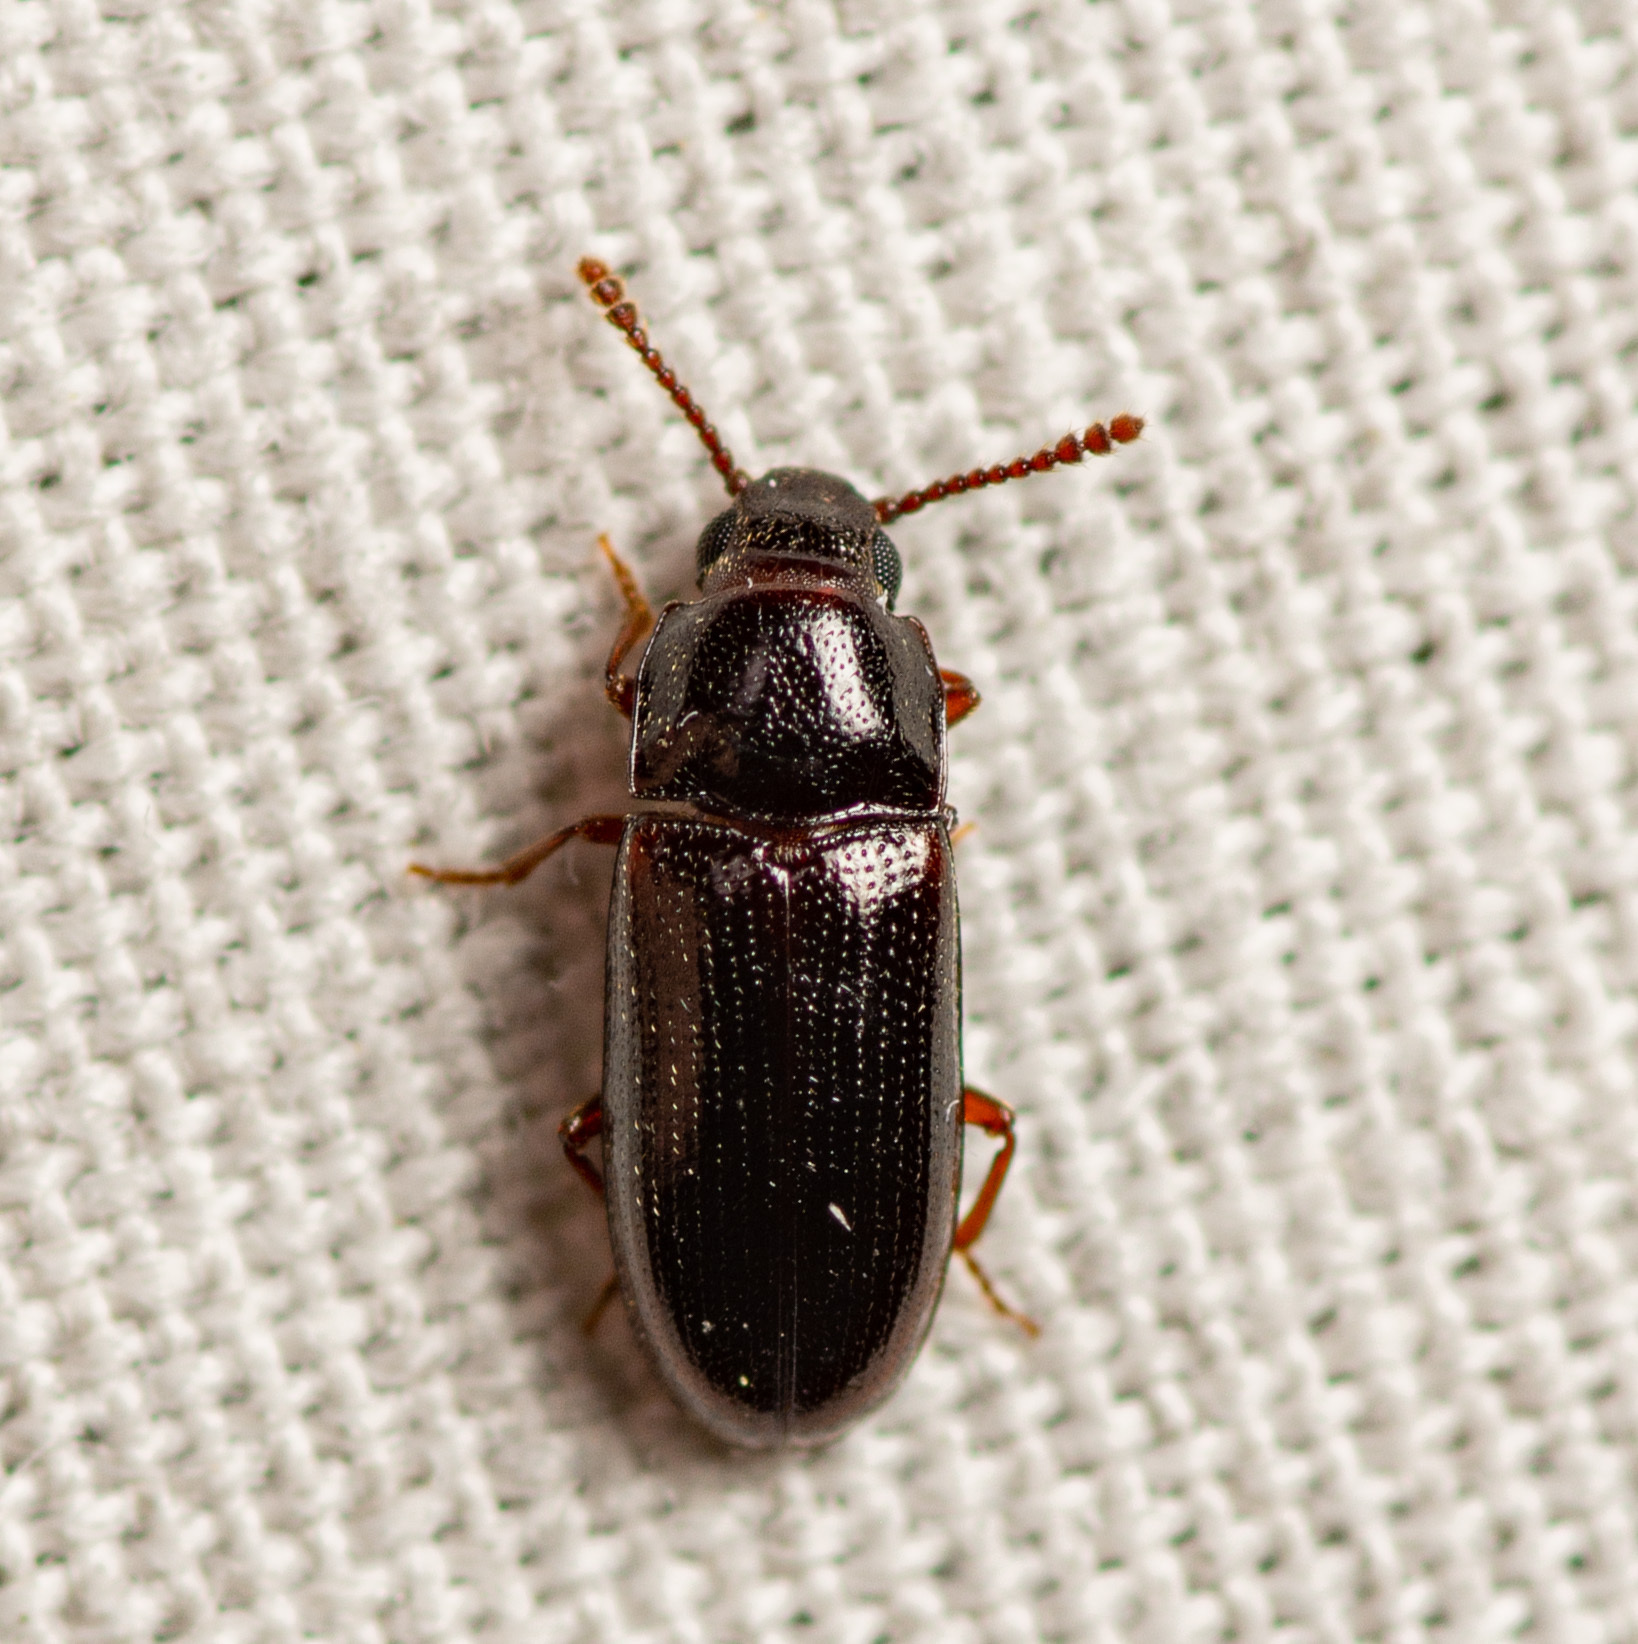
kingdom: Animalia
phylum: Arthropoda
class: Insecta
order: Coleoptera
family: Erotylidae
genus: Pharaxonotha
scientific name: Pharaxonotha kirschii
